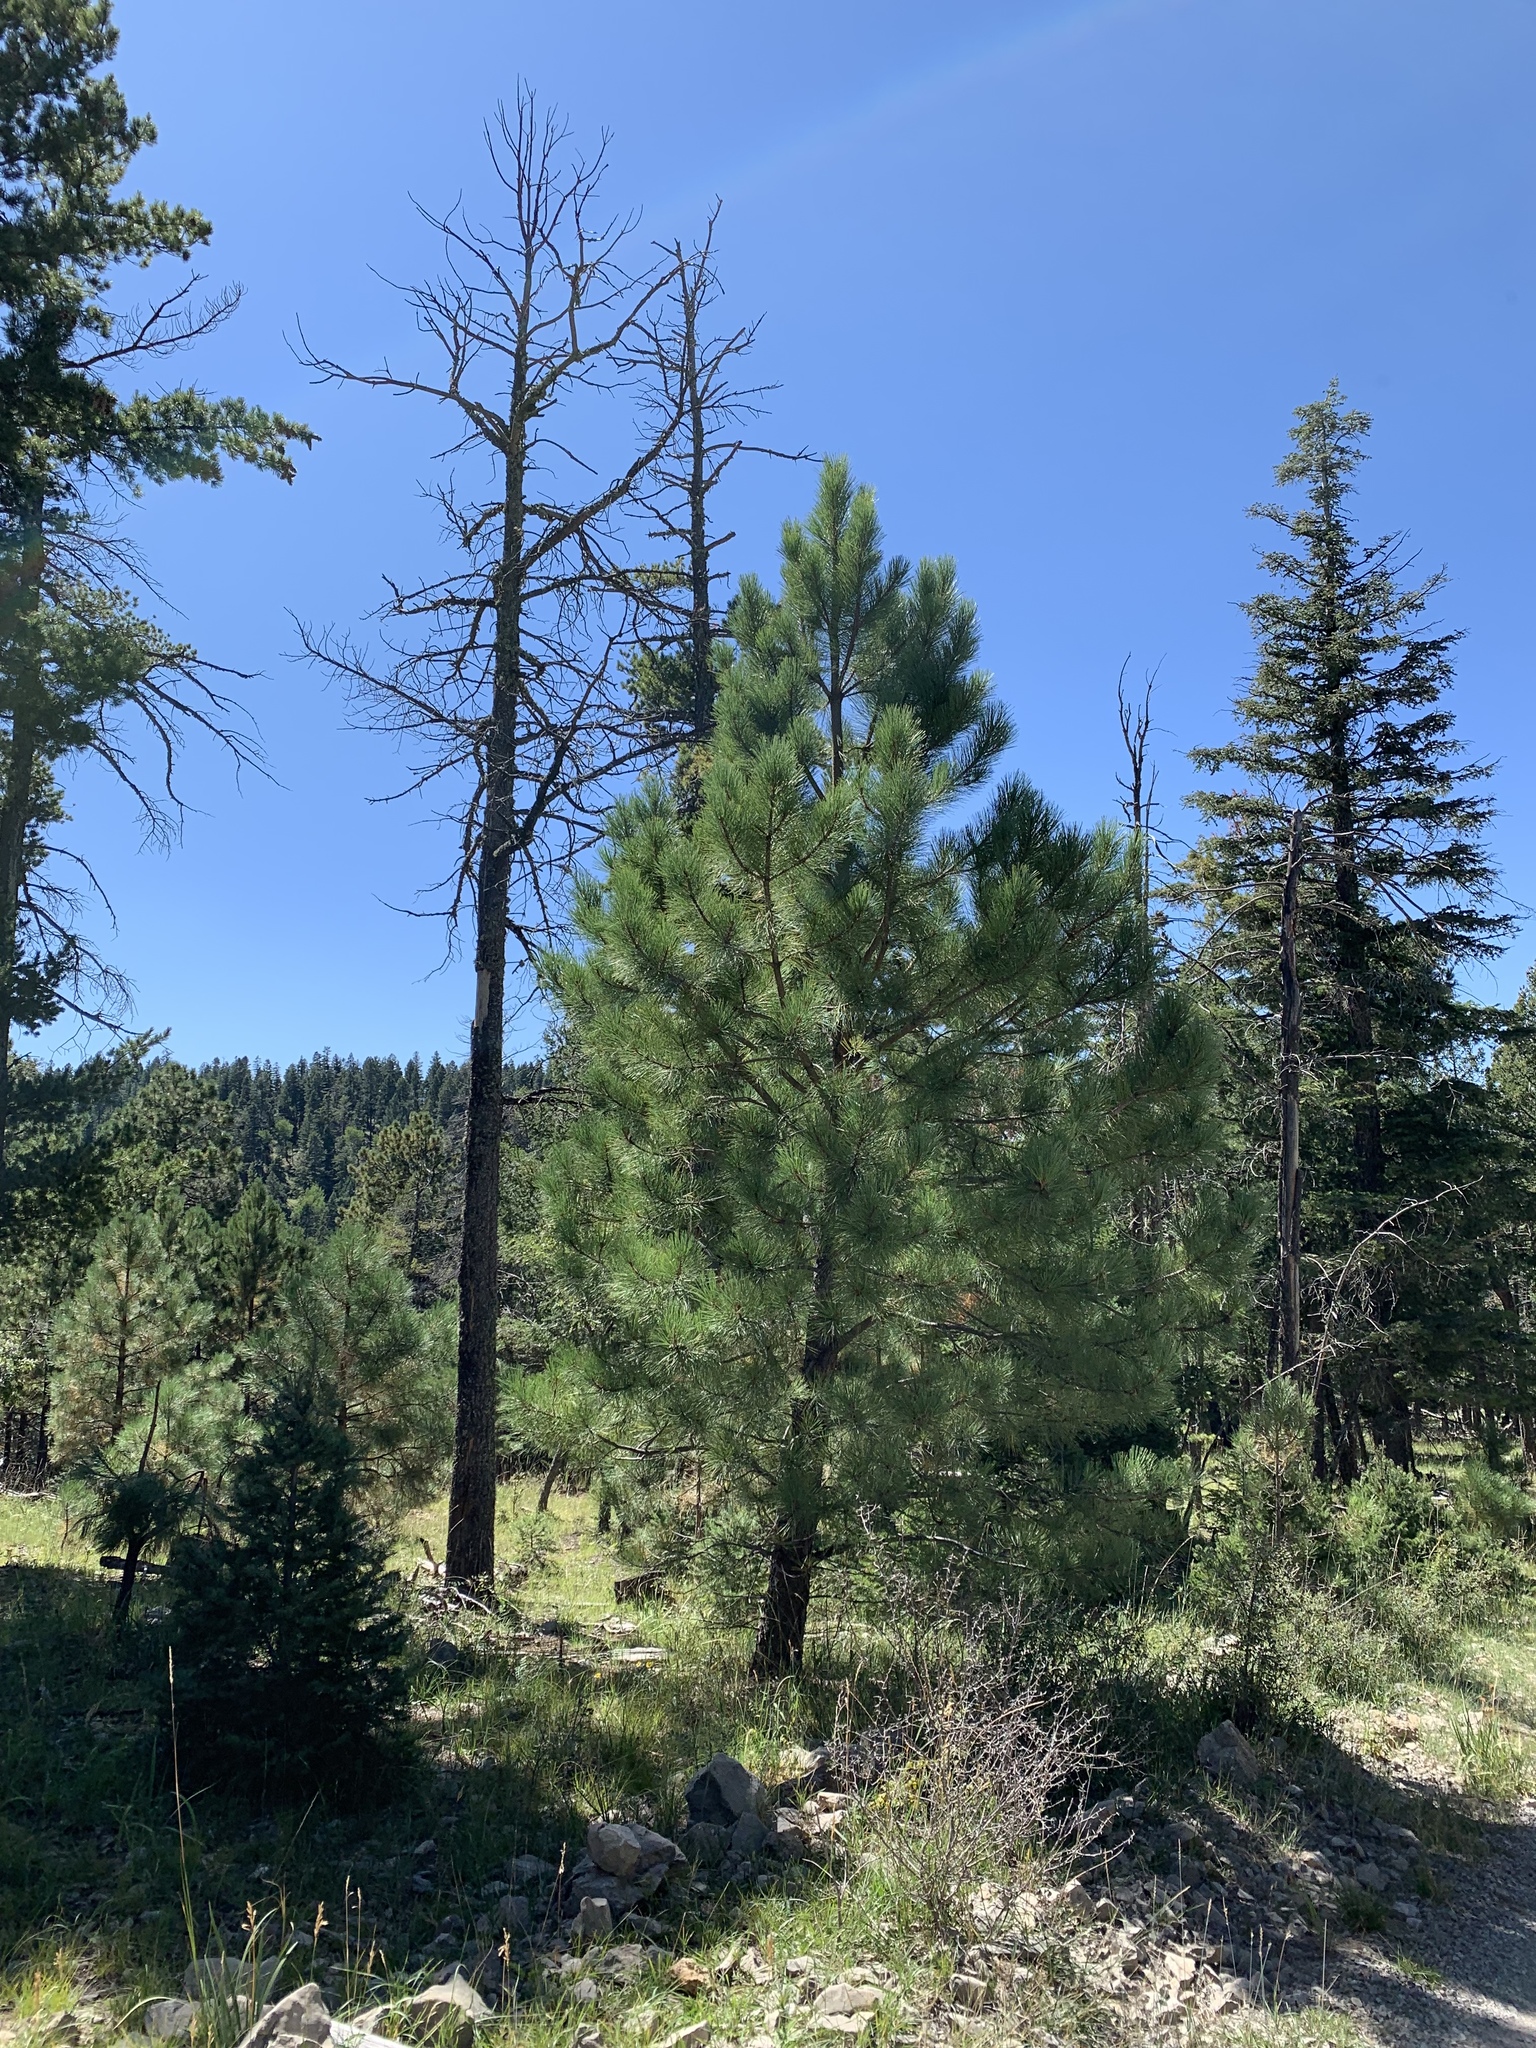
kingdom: Plantae
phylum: Tracheophyta
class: Pinopsida
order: Pinales
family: Pinaceae
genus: Pinus
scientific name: Pinus ponderosa
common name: Western yellow-pine
